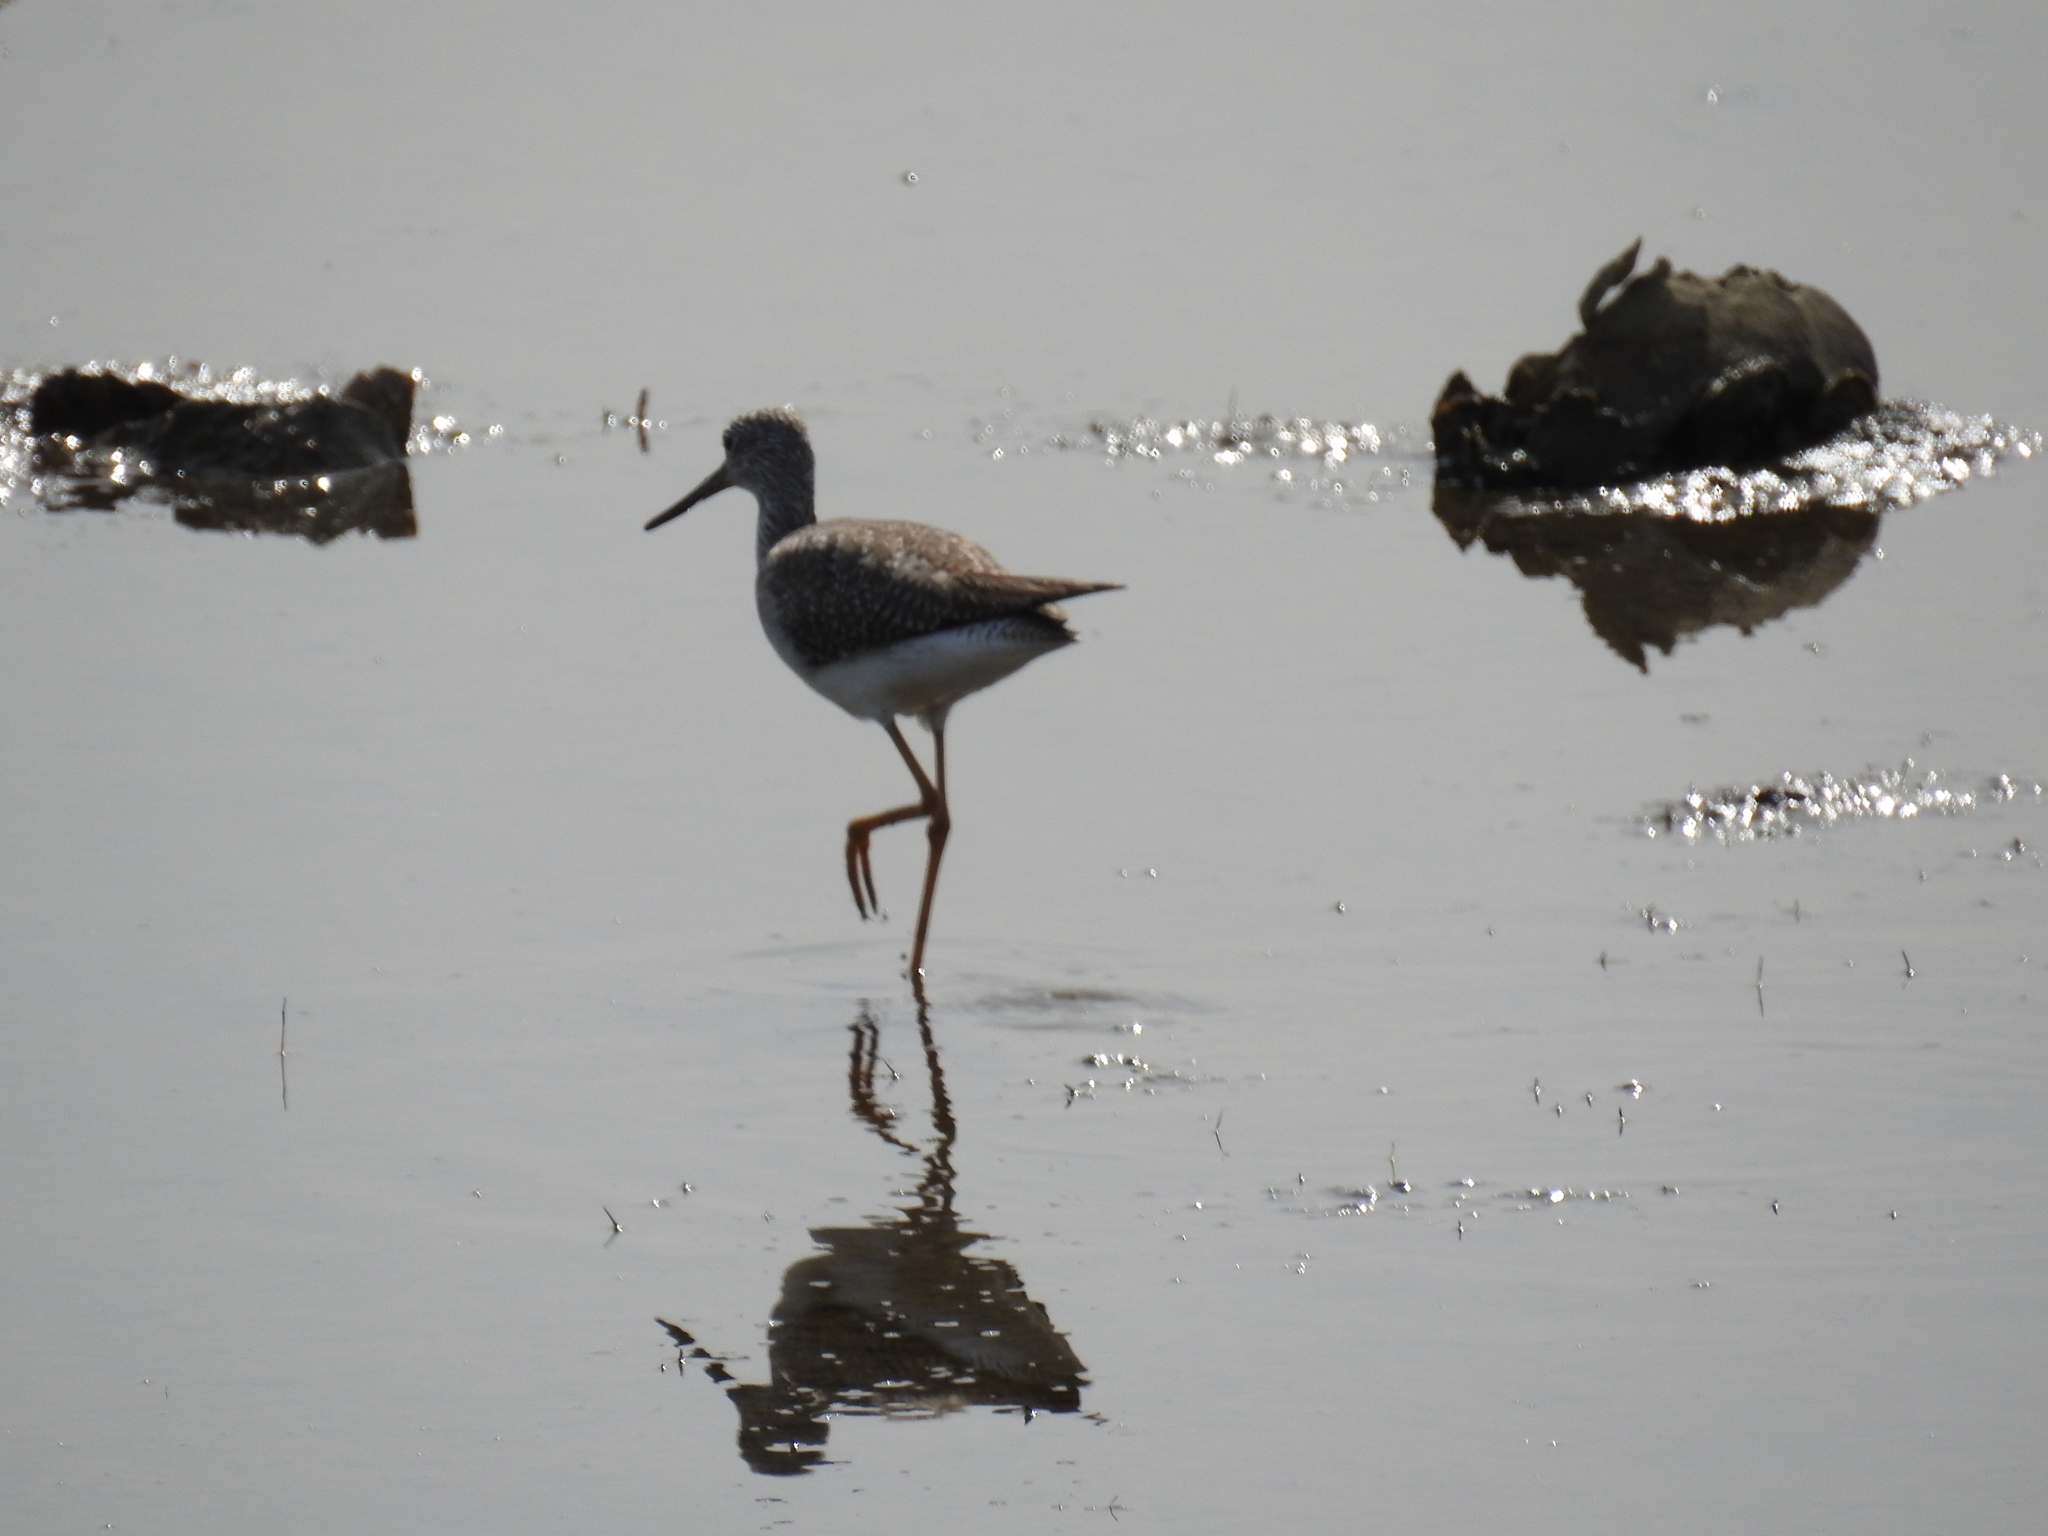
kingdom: Animalia
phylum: Chordata
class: Aves
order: Charadriiformes
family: Scolopacidae
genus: Tringa
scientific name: Tringa melanoleuca
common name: Greater yellowlegs
